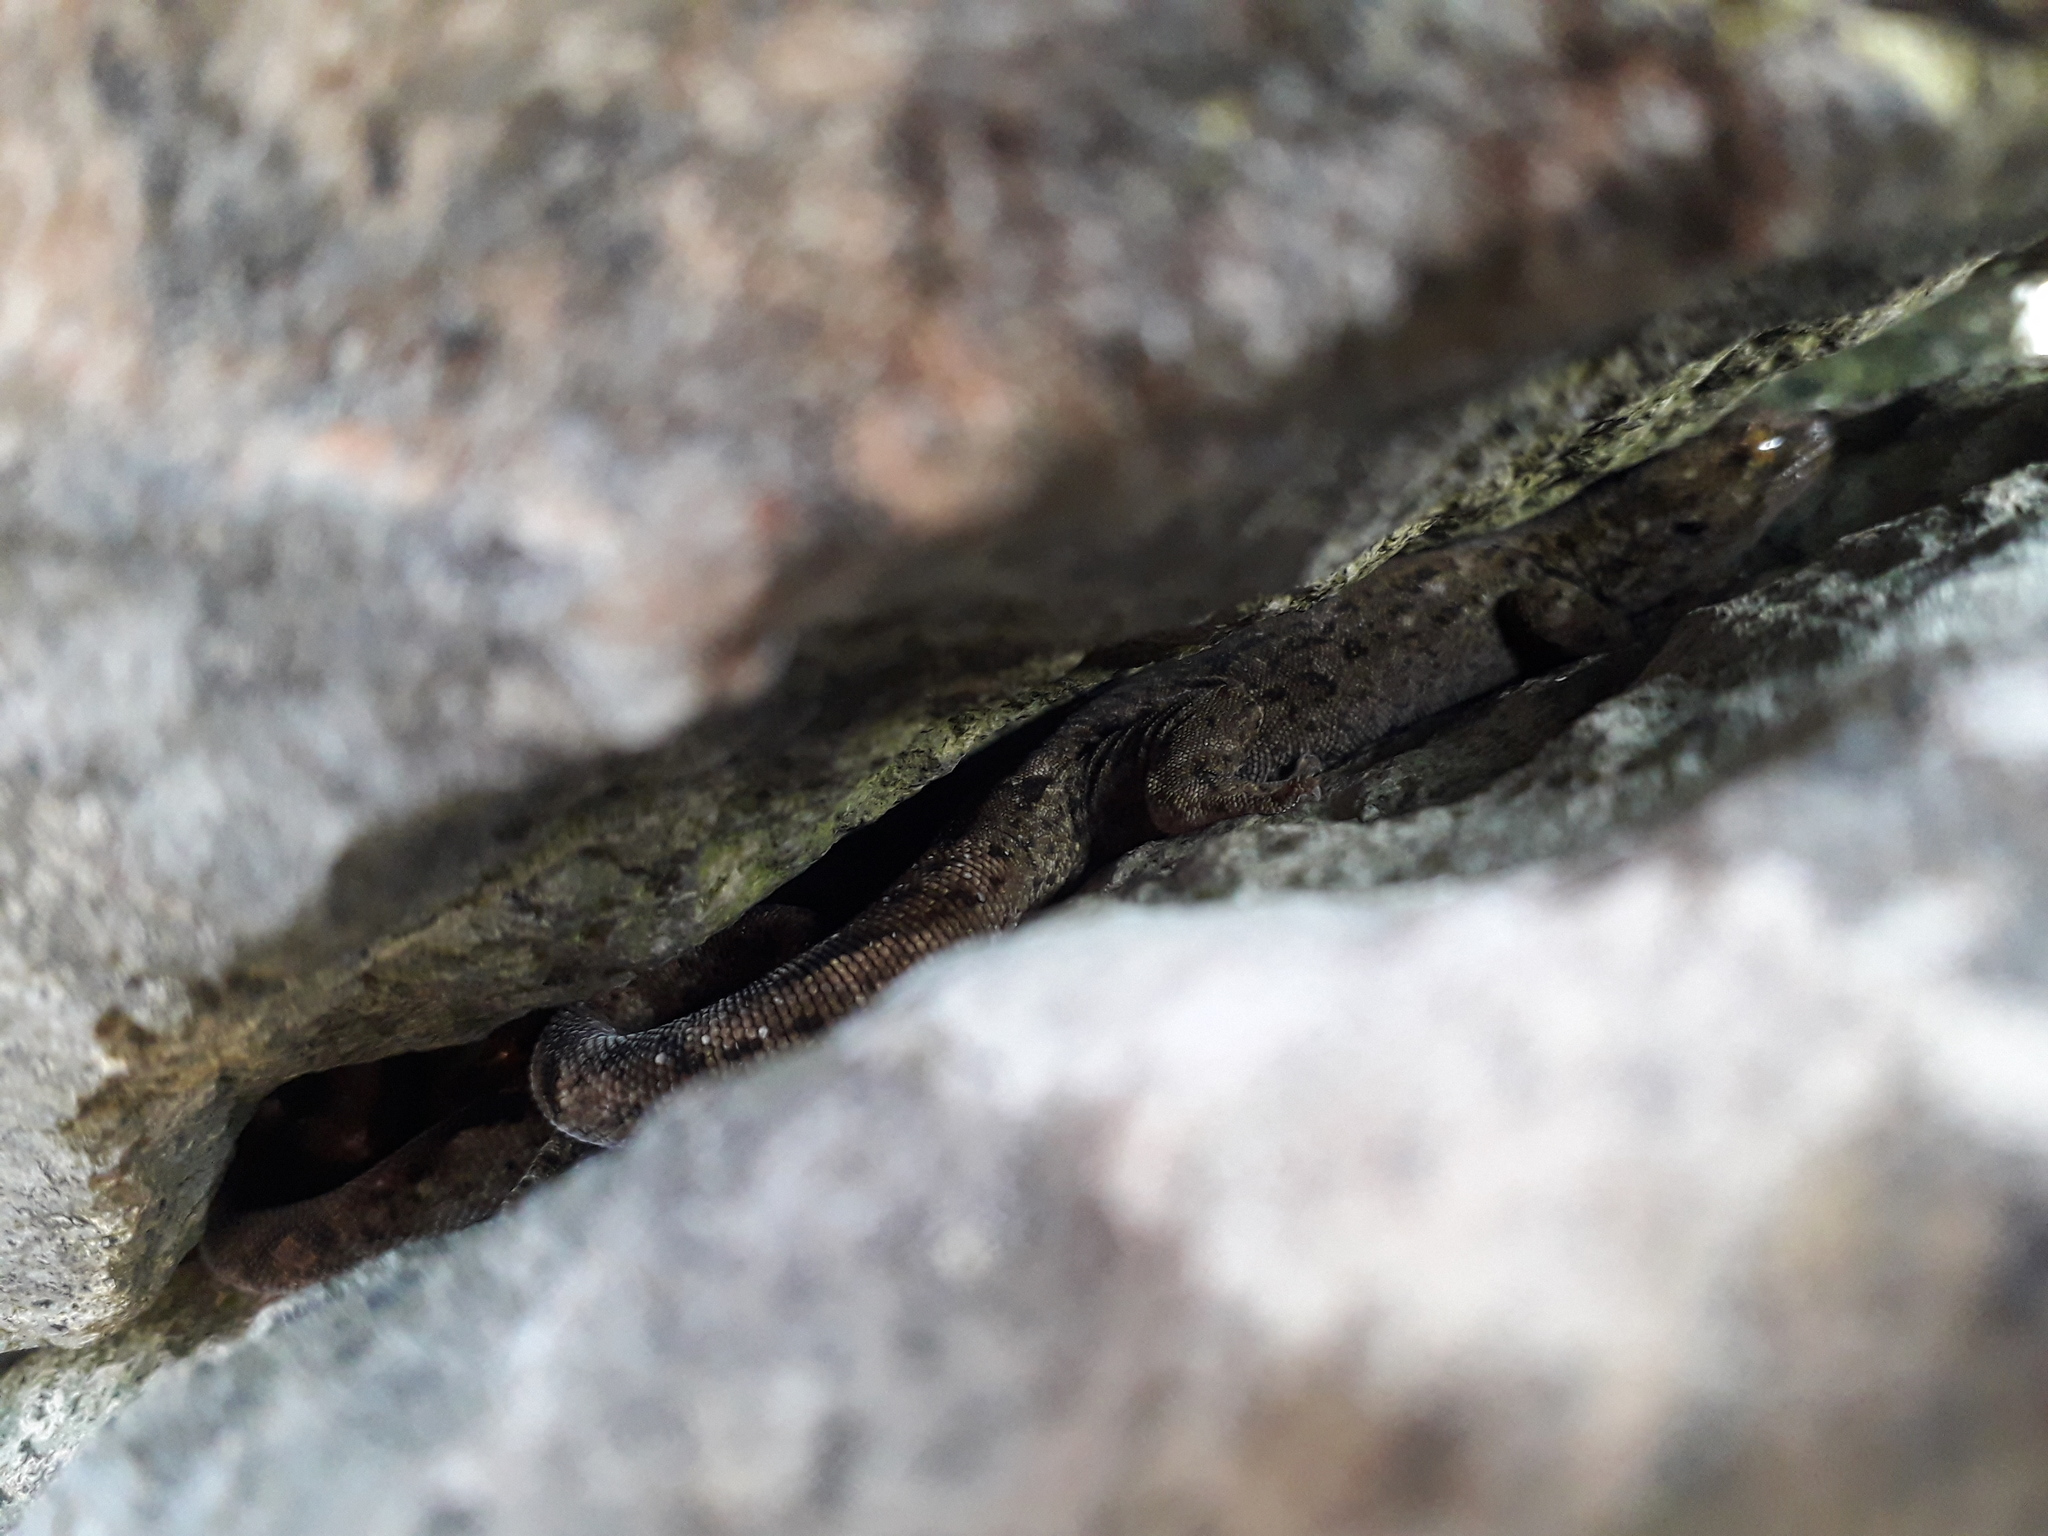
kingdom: Animalia
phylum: Chordata
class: Squamata
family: Diplodactylidae
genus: Woodworthia
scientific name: Woodworthia brunnea
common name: Canterbury gecko
